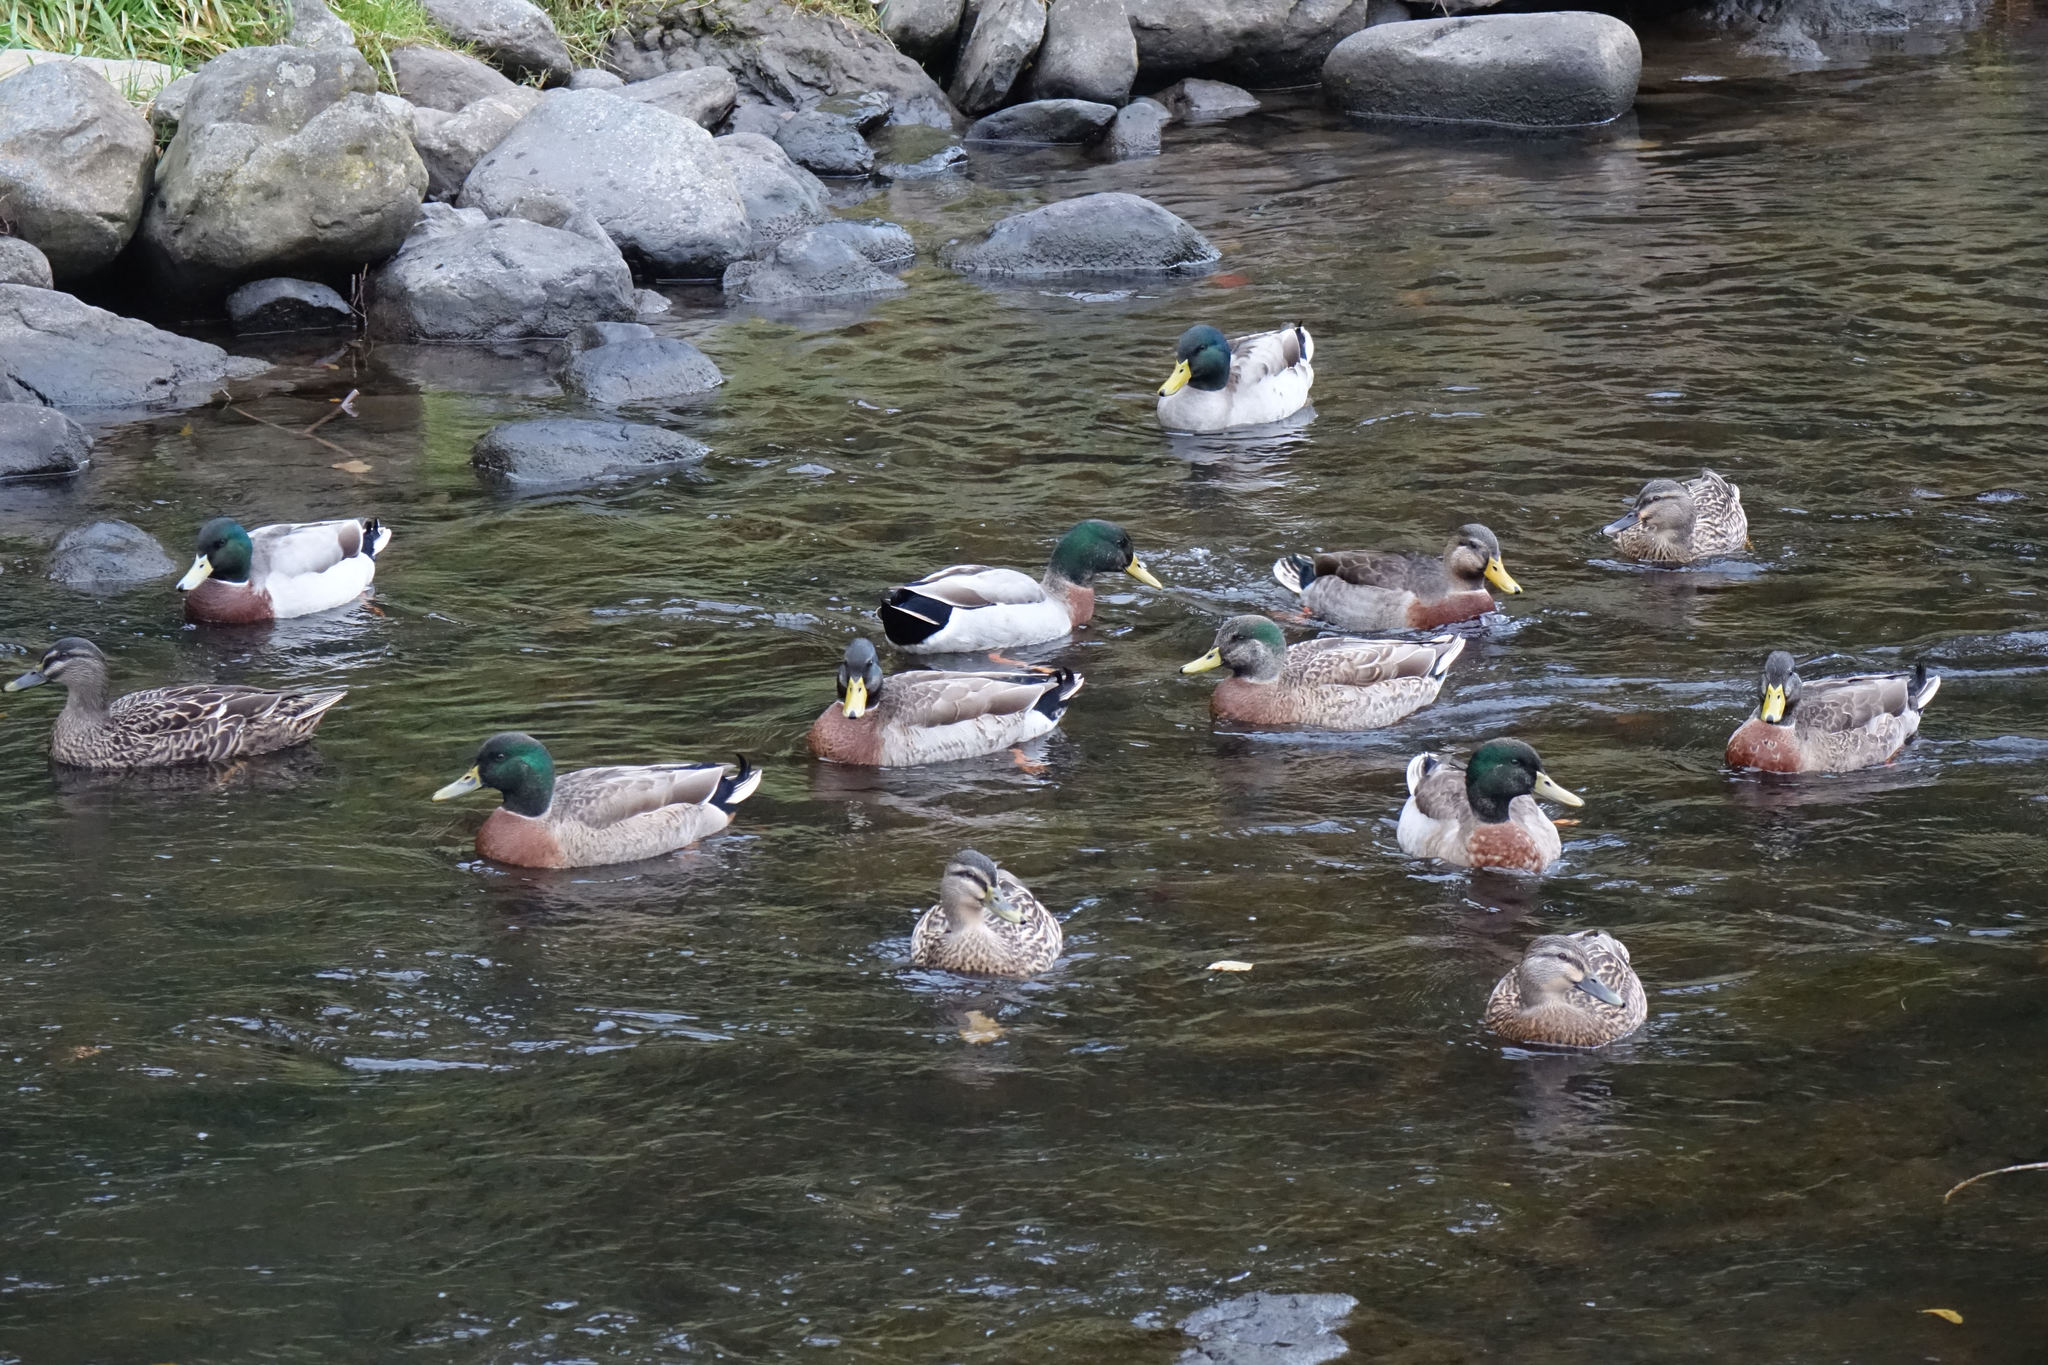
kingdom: Animalia
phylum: Chordata
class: Aves
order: Anseriformes
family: Anatidae
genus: Anas
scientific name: Anas platyrhynchos
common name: Mallard
